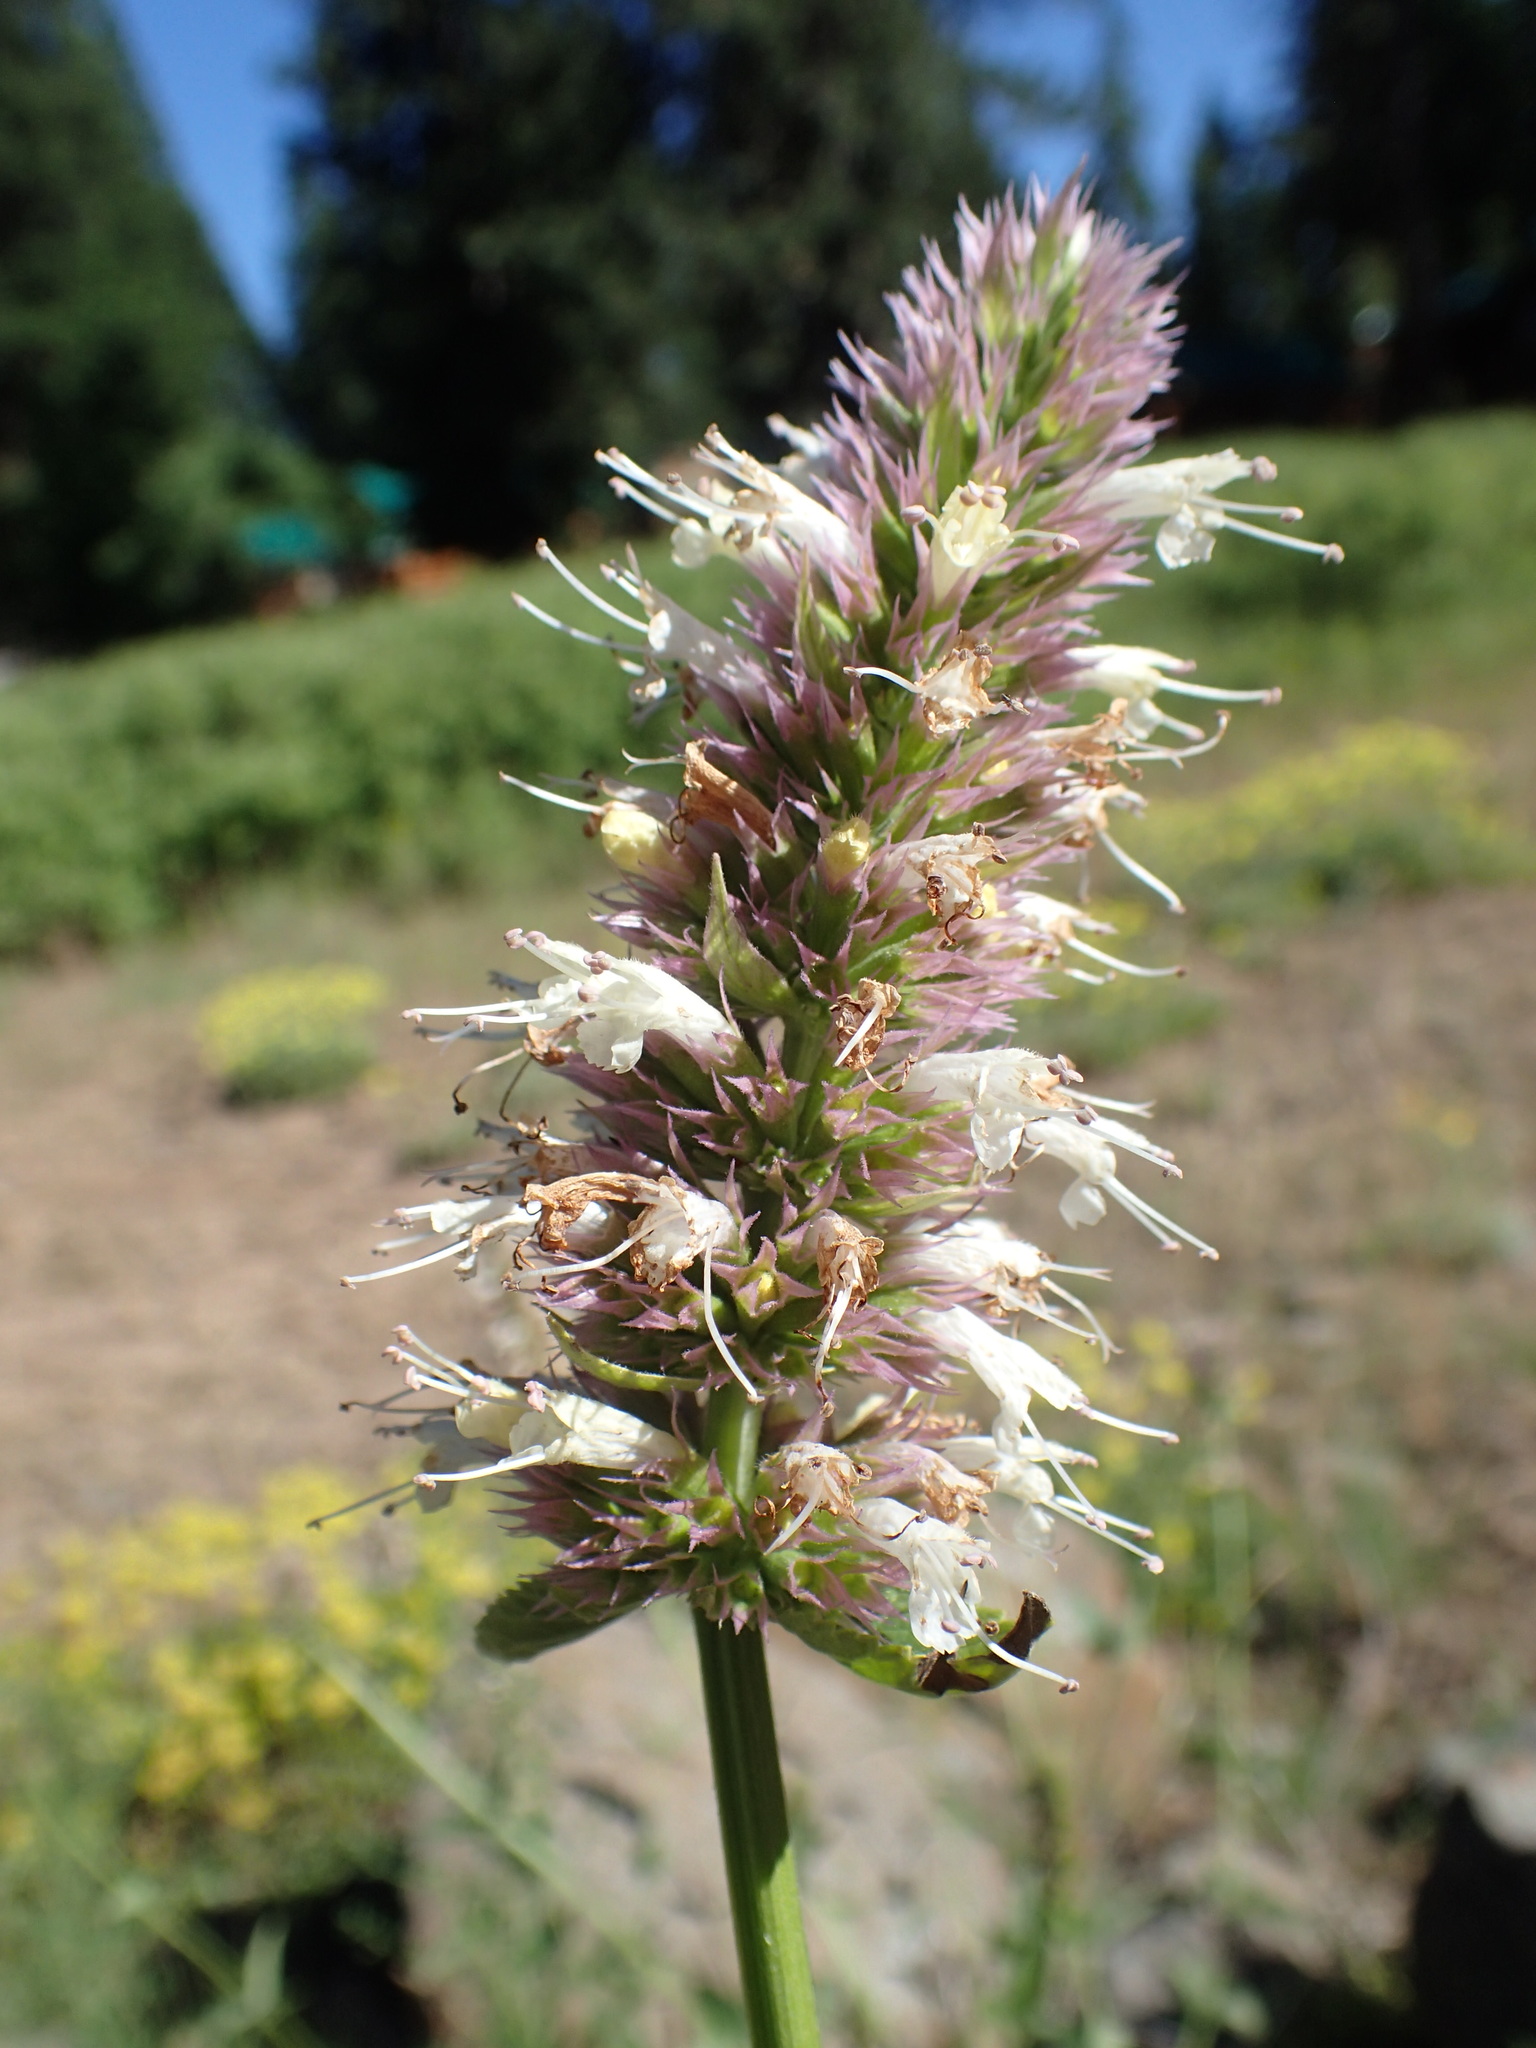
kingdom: Plantae
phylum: Tracheophyta
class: Magnoliopsida
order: Lamiales
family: Lamiaceae
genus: Agastache
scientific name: Agastache urticifolia
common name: Horsemint giant hyssop
